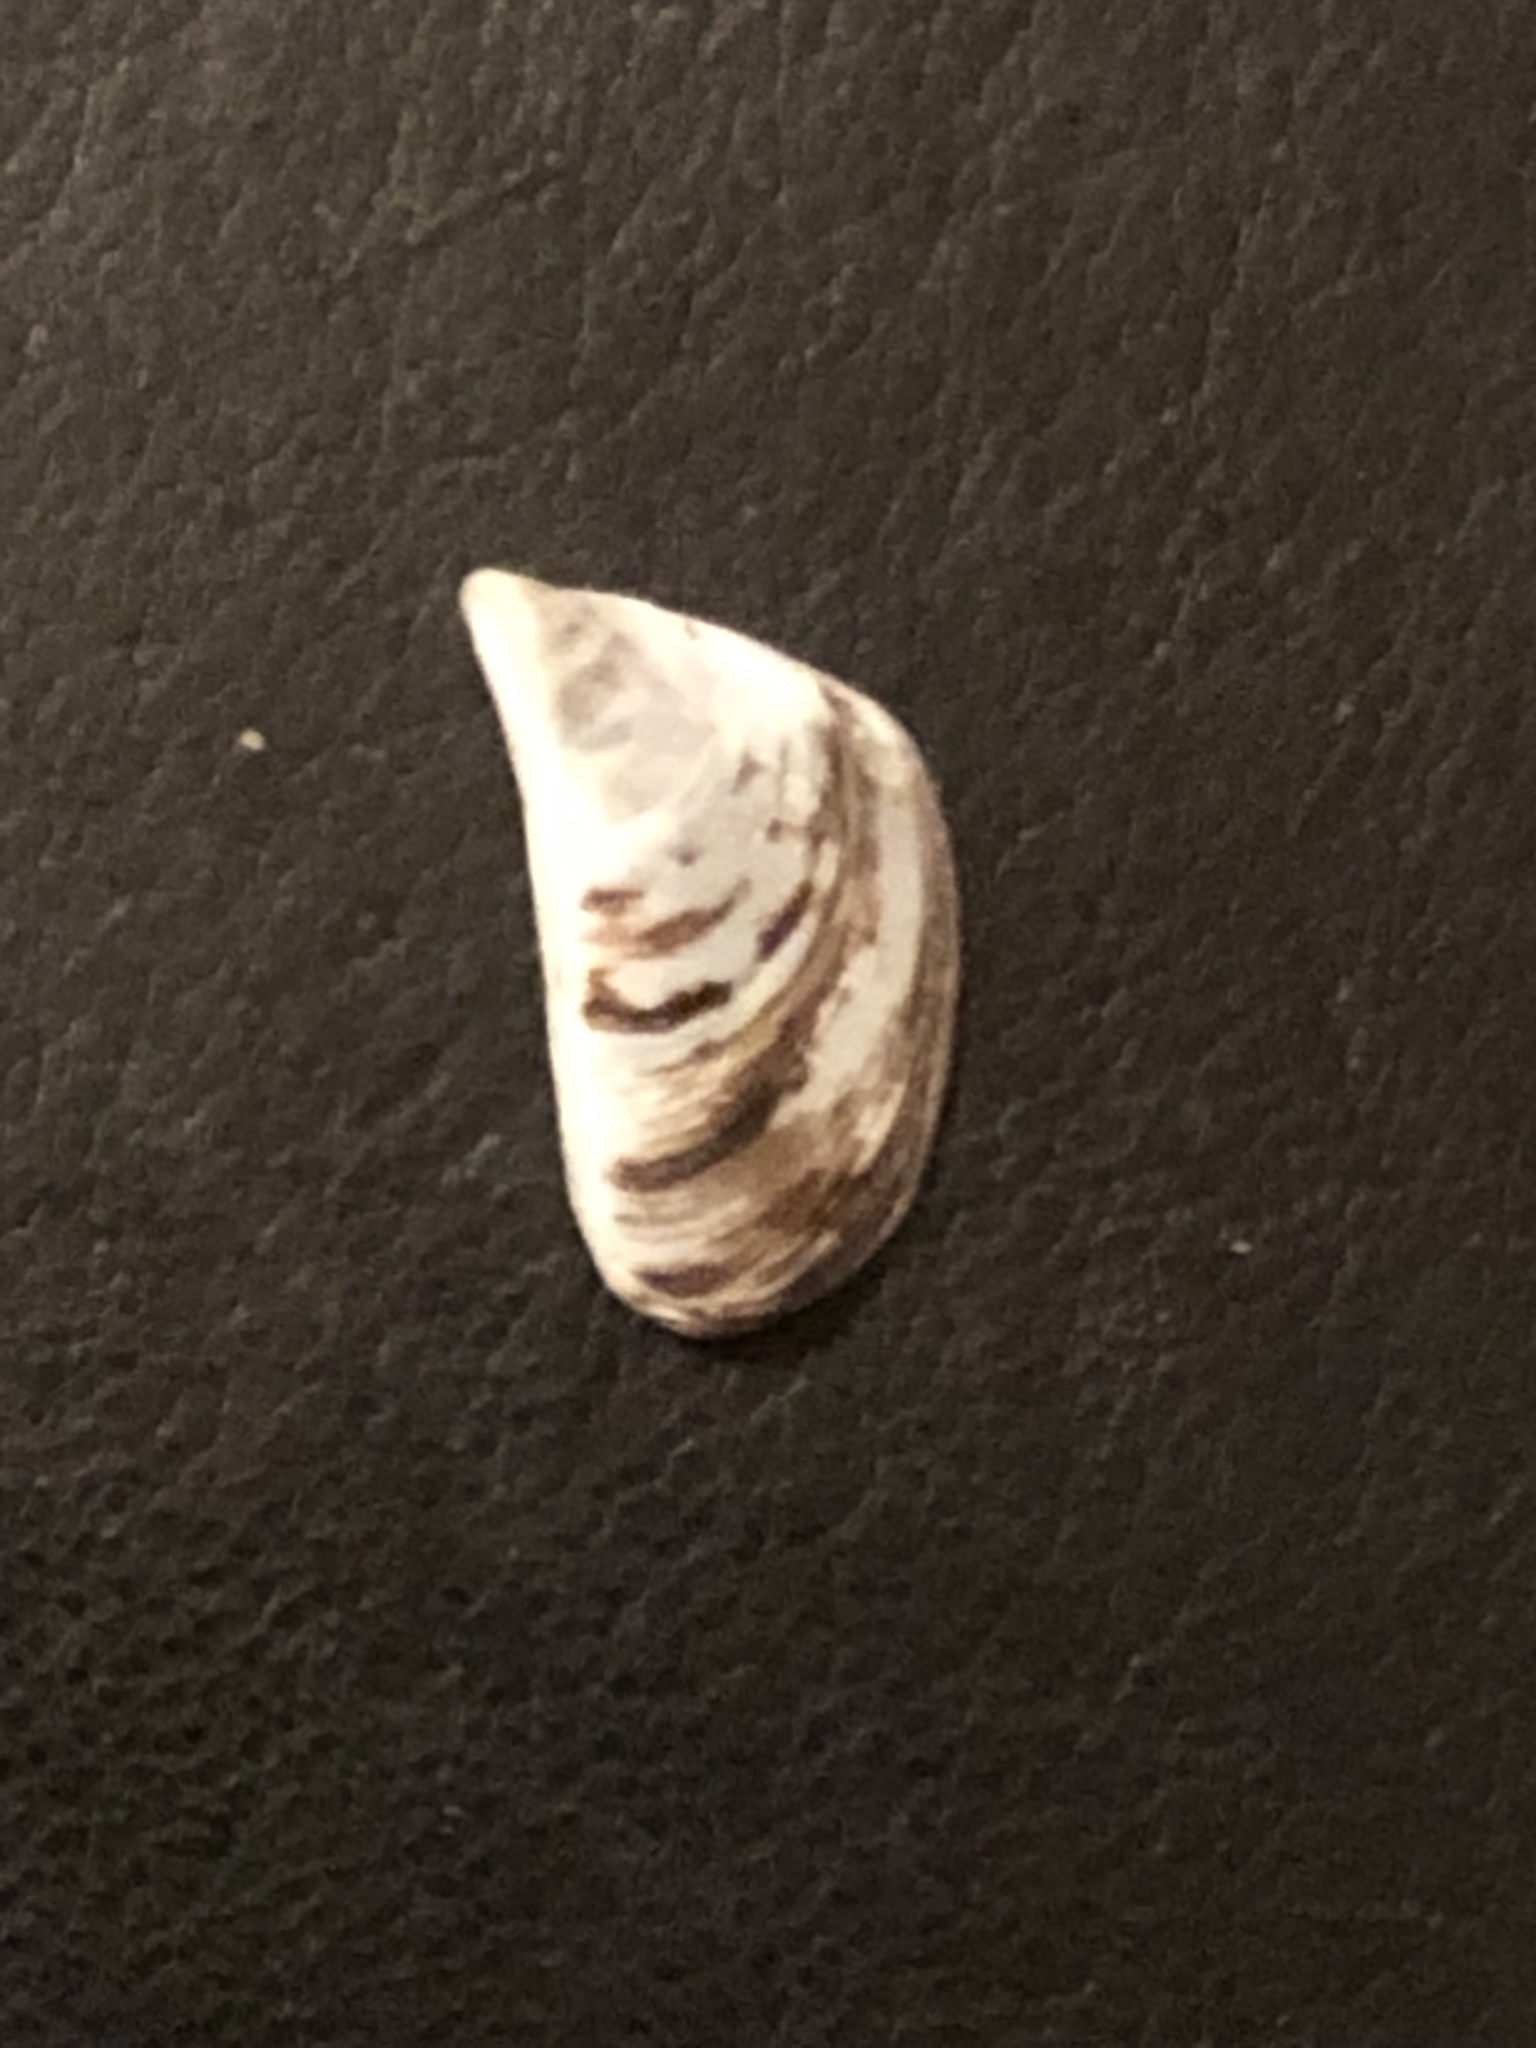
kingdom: Animalia
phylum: Mollusca
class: Bivalvia
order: Myida
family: Dreissenidae
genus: Dreissena
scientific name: Dreissena polymorpha
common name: Zebra mussel
